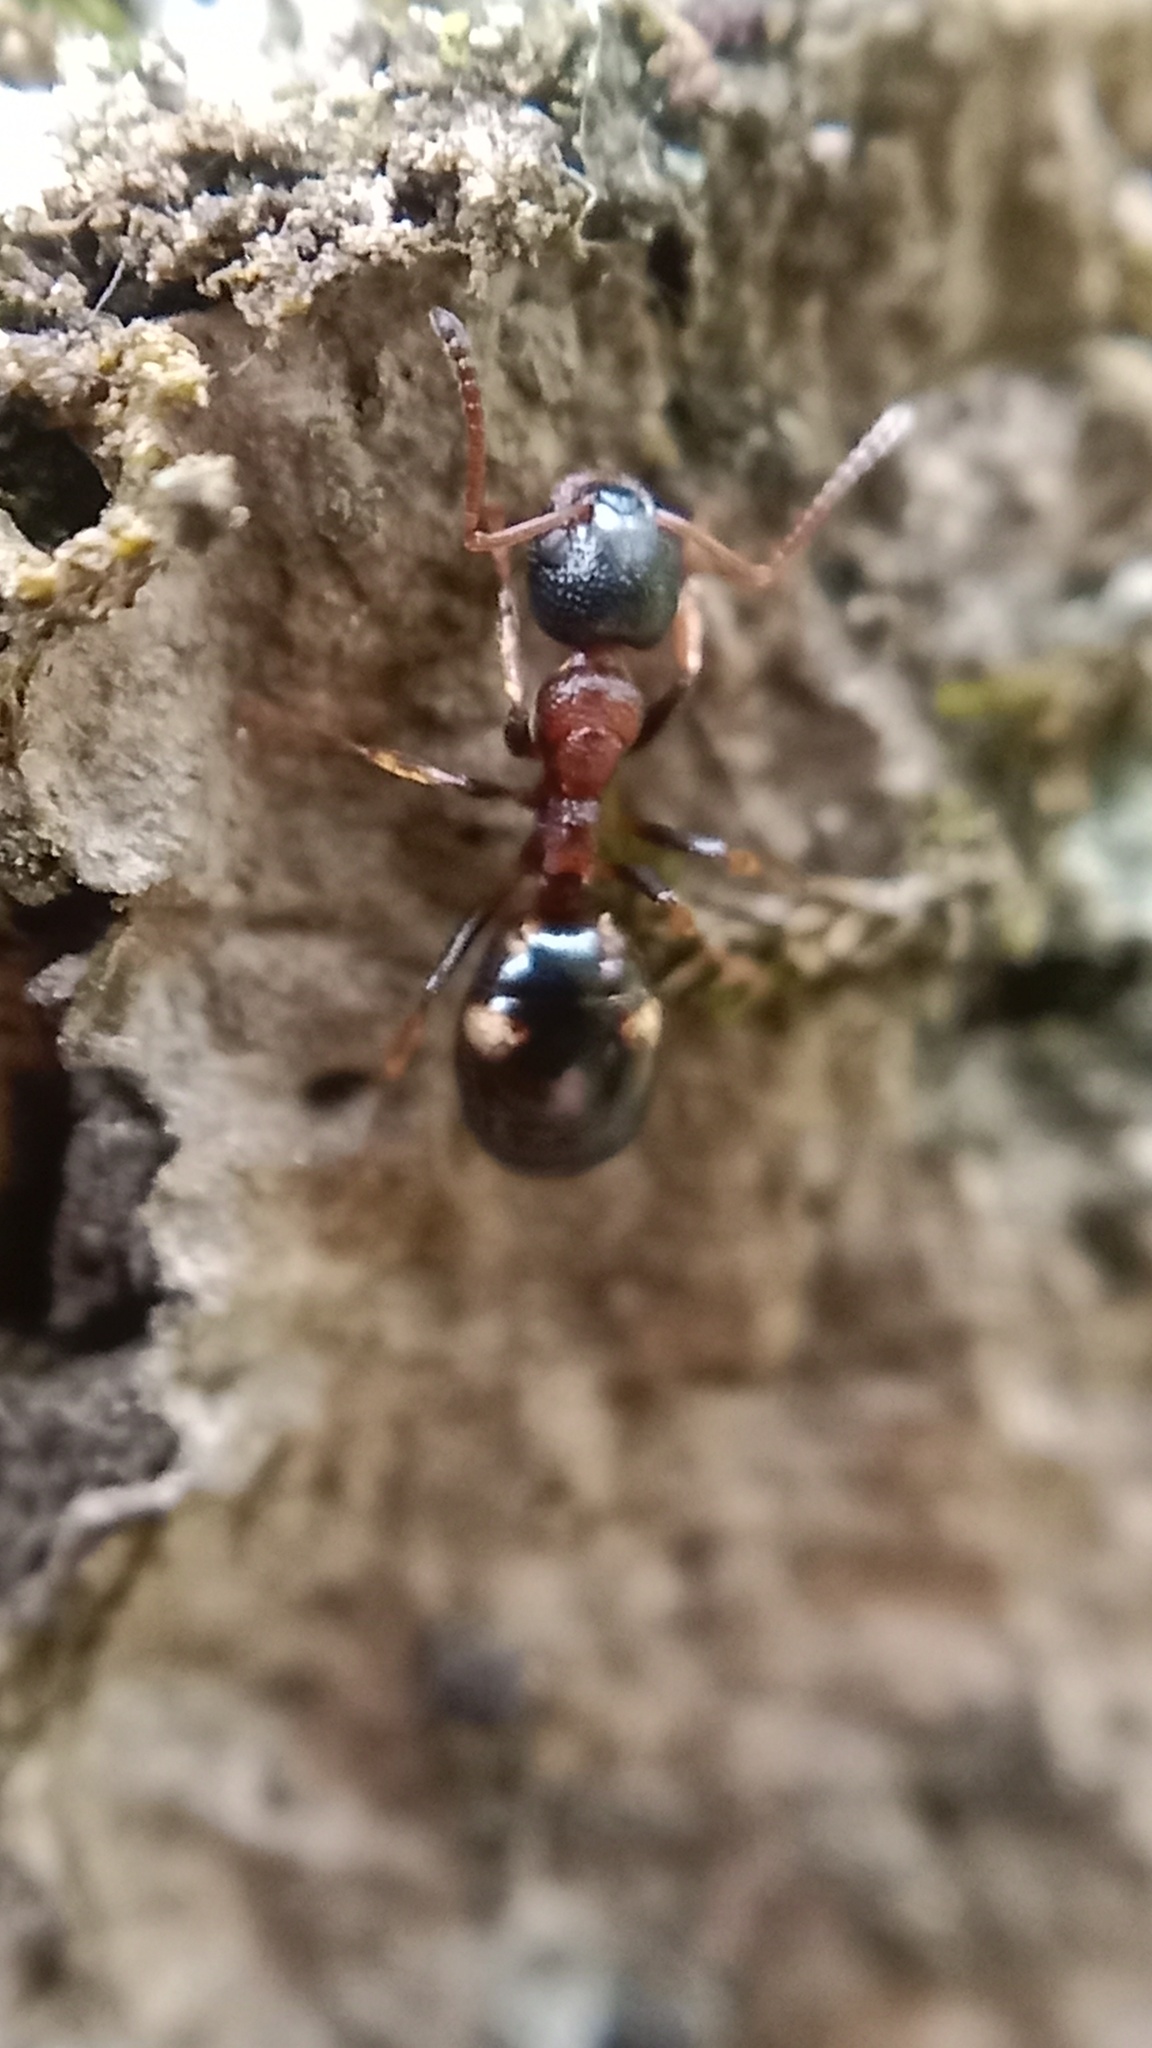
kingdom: Animalia
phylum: Arthropoda
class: Insecta
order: Hymenoptera
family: Formicidae
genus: Dolichoderus
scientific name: Dolichoderus quadripunctatus
